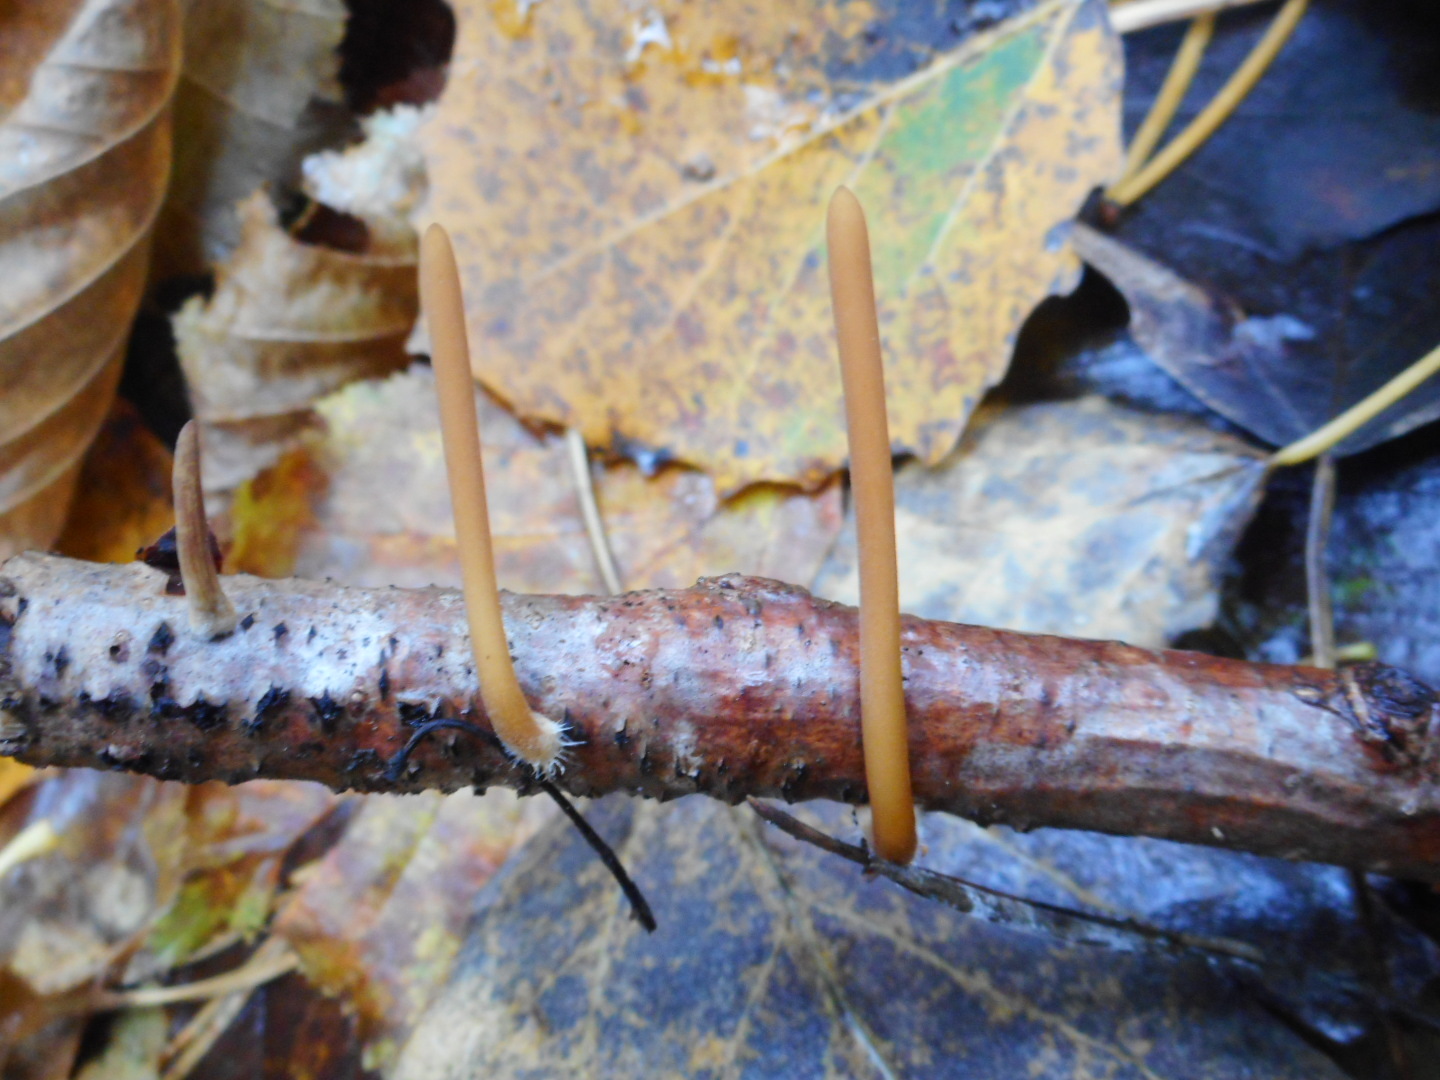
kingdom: Fungi
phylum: Basidiomycota
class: Agaricomycetes
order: Agaricales
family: Typhulaceae
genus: Typhula
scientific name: Typhula fistulosa
